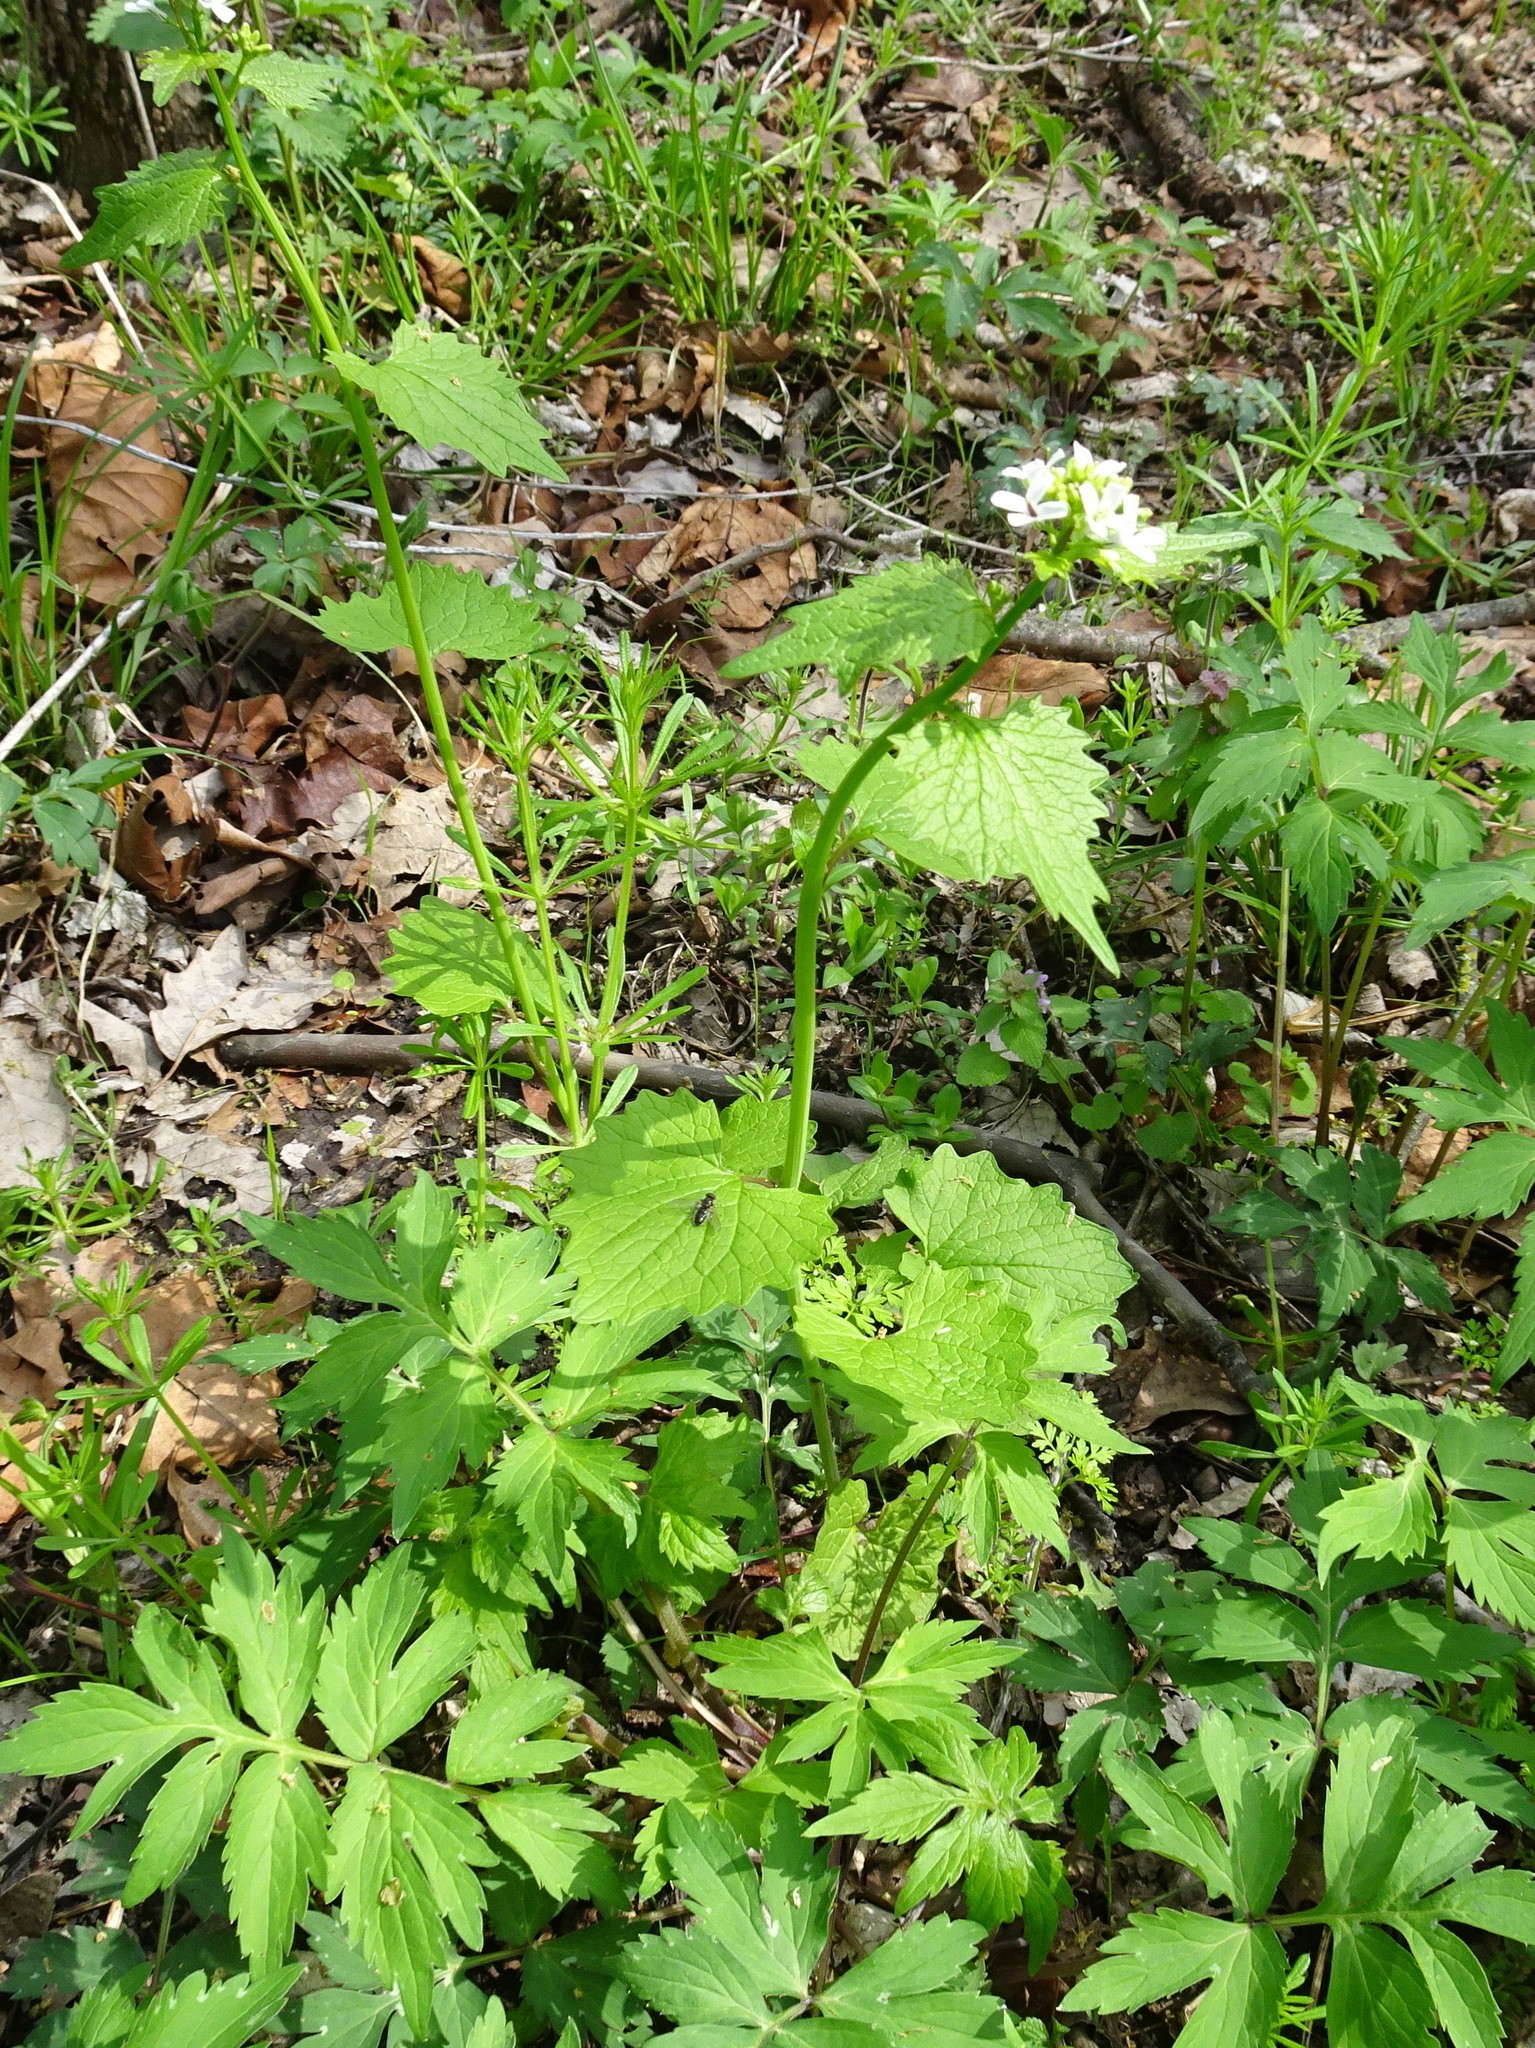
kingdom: Plantae
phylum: Tracheophyta
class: Magnoliopsida
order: Brassicales
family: Brassicaceae
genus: Alliaria
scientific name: Alliaria petiolata
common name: Garlic mustard
